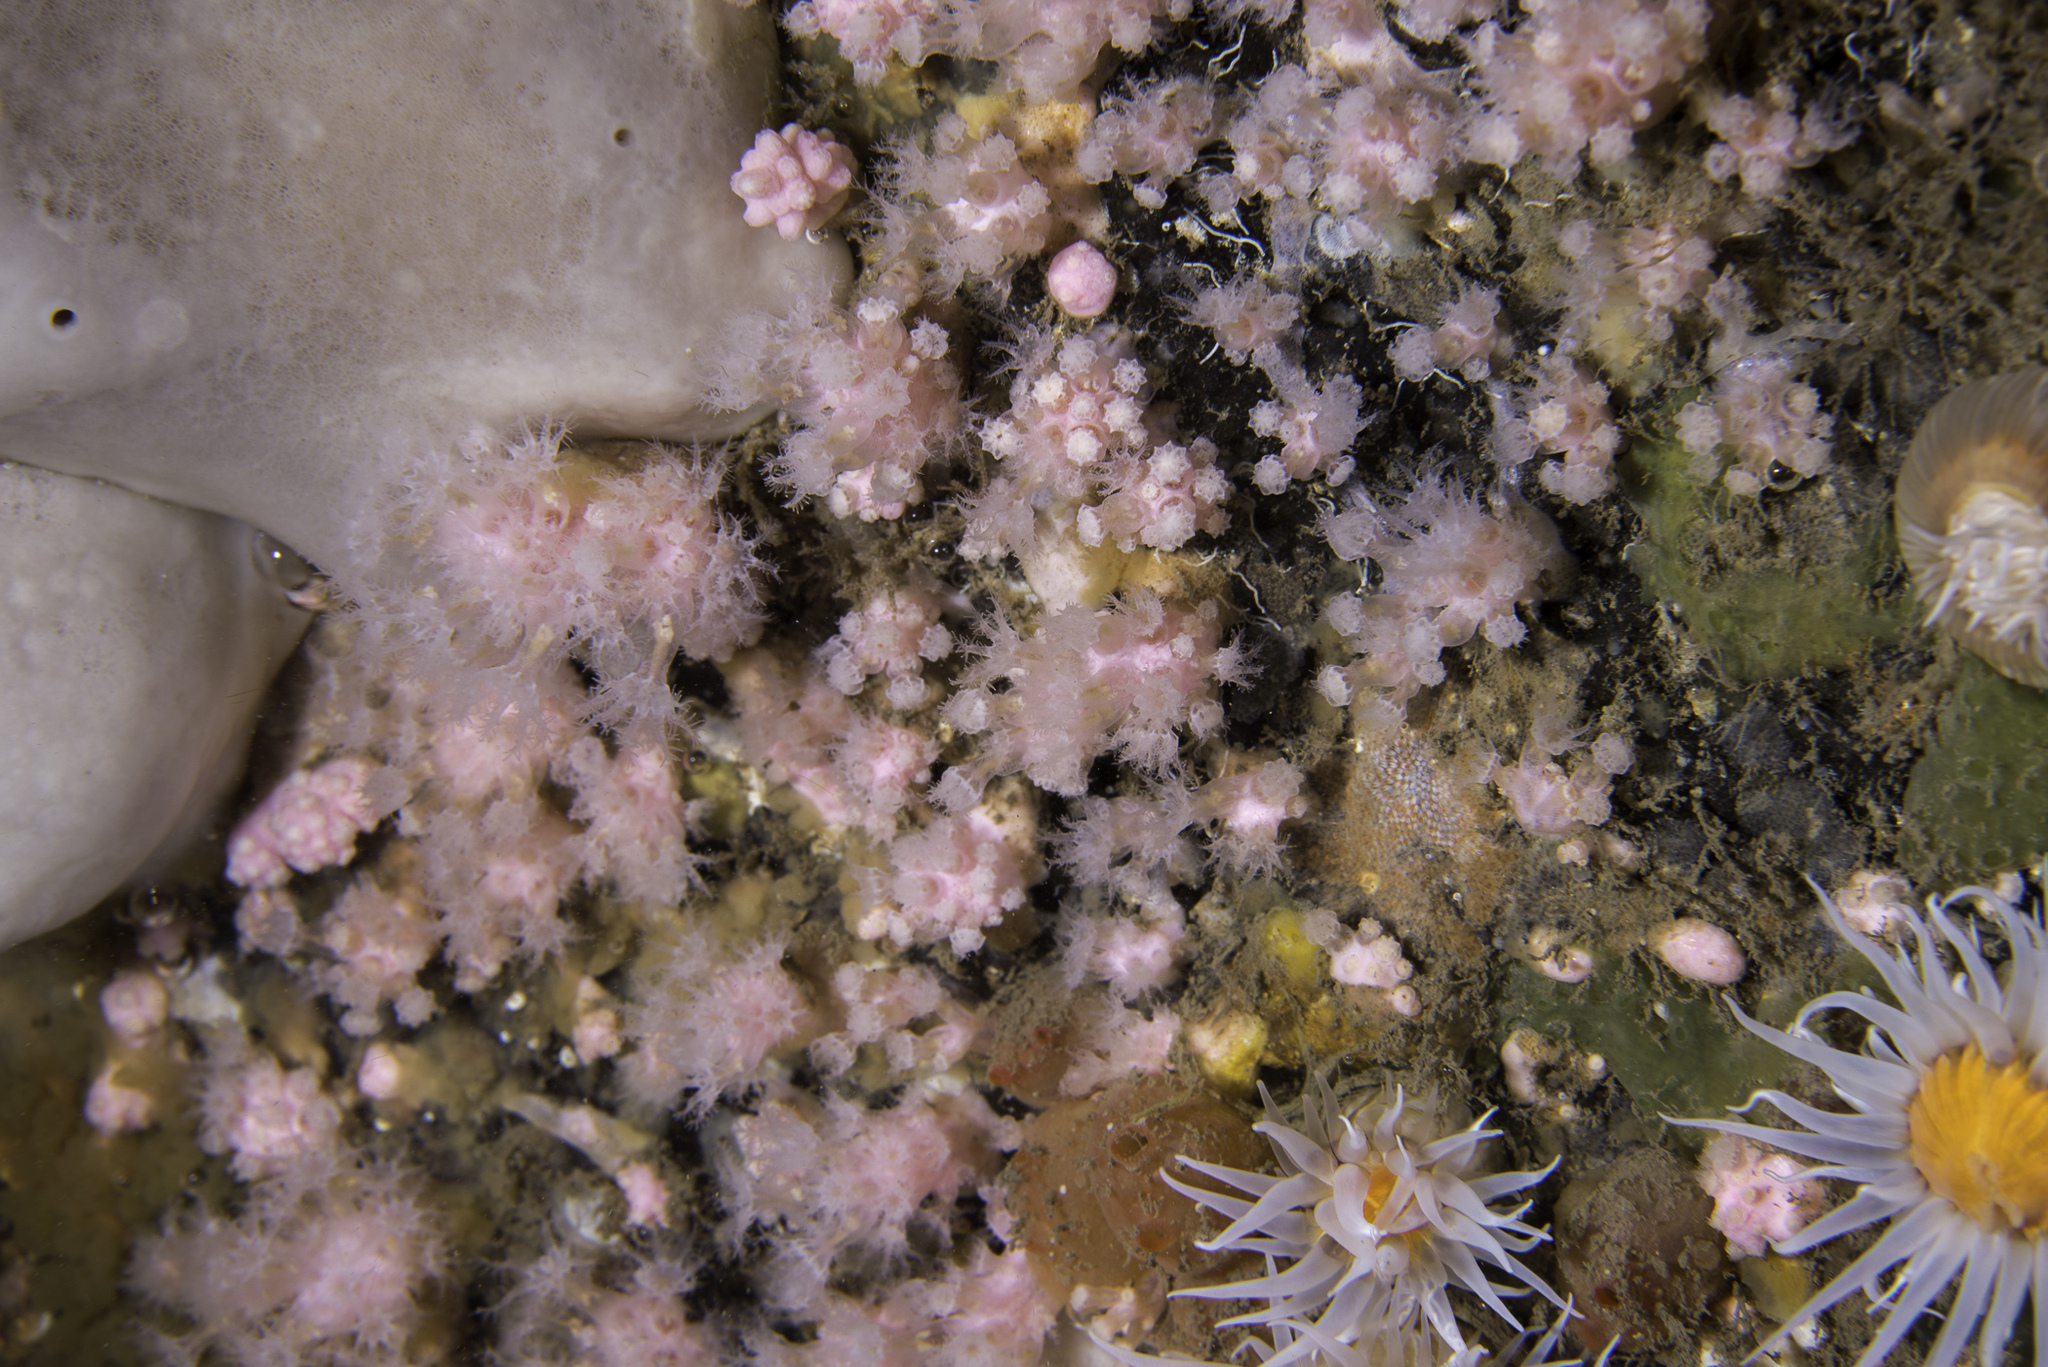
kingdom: Animalia
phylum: Cnidaria
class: Anthozoa
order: Malacalcyonacea
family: Alcyoniidae
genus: Alcyonium
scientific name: Alcyonium hibernicum
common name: Pink sea fingers
